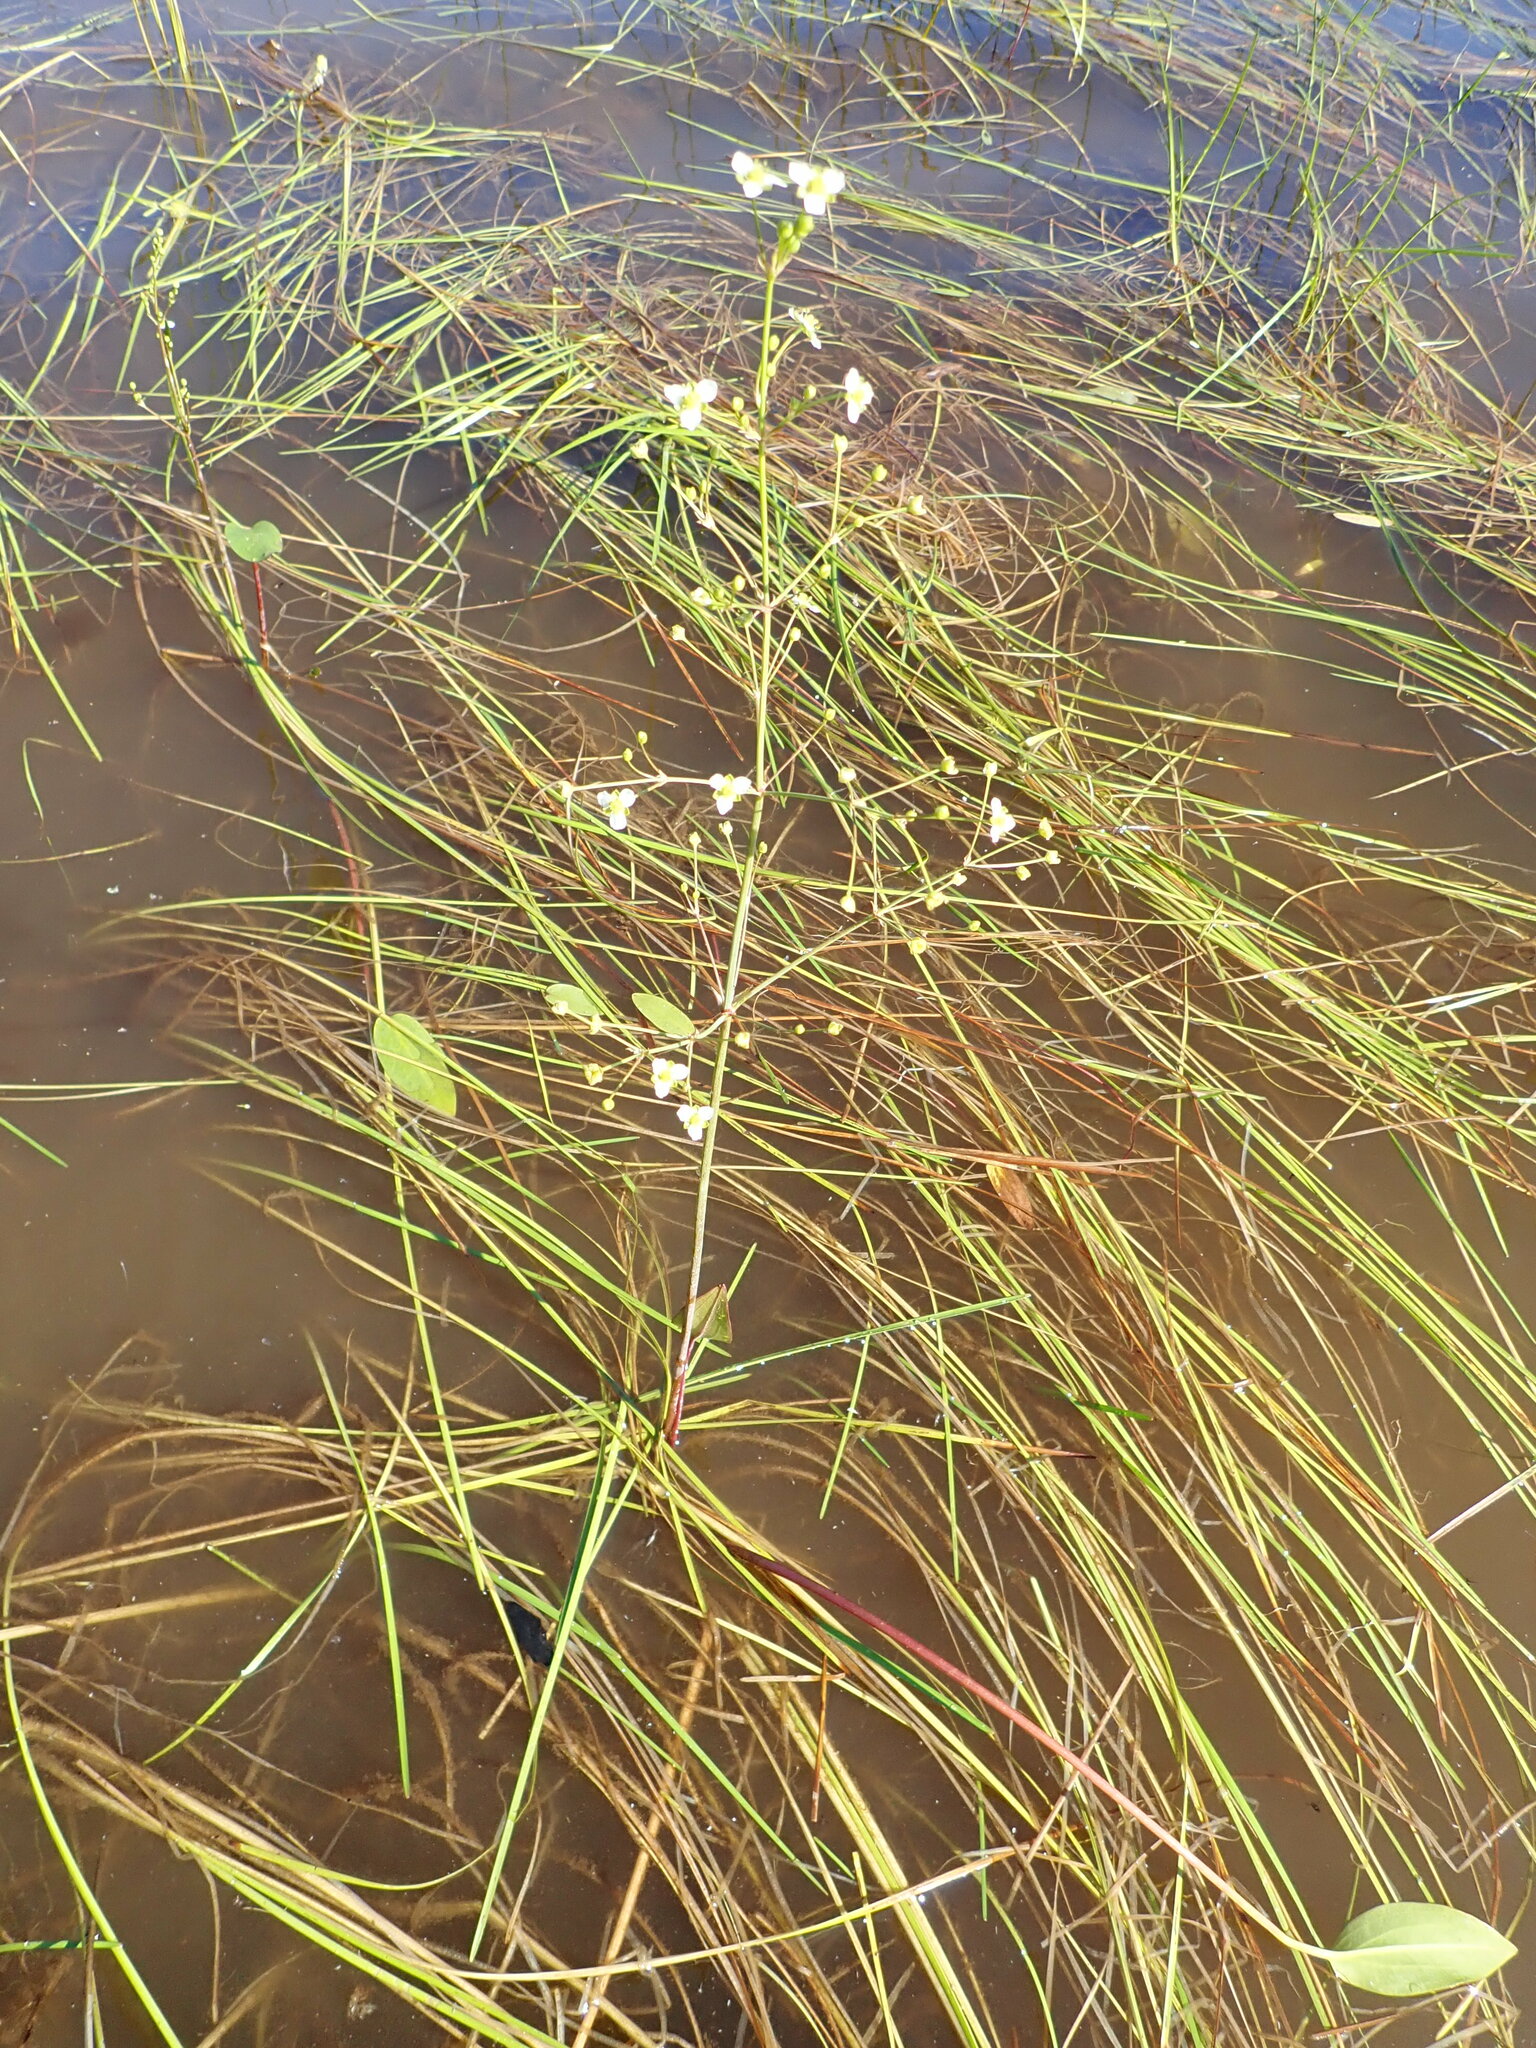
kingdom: Plantae
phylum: Tracheophyta
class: Liliopsida
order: Alismatales
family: Alismataceae
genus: Alisma
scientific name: Alisma triviale
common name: Northern water-plantain
